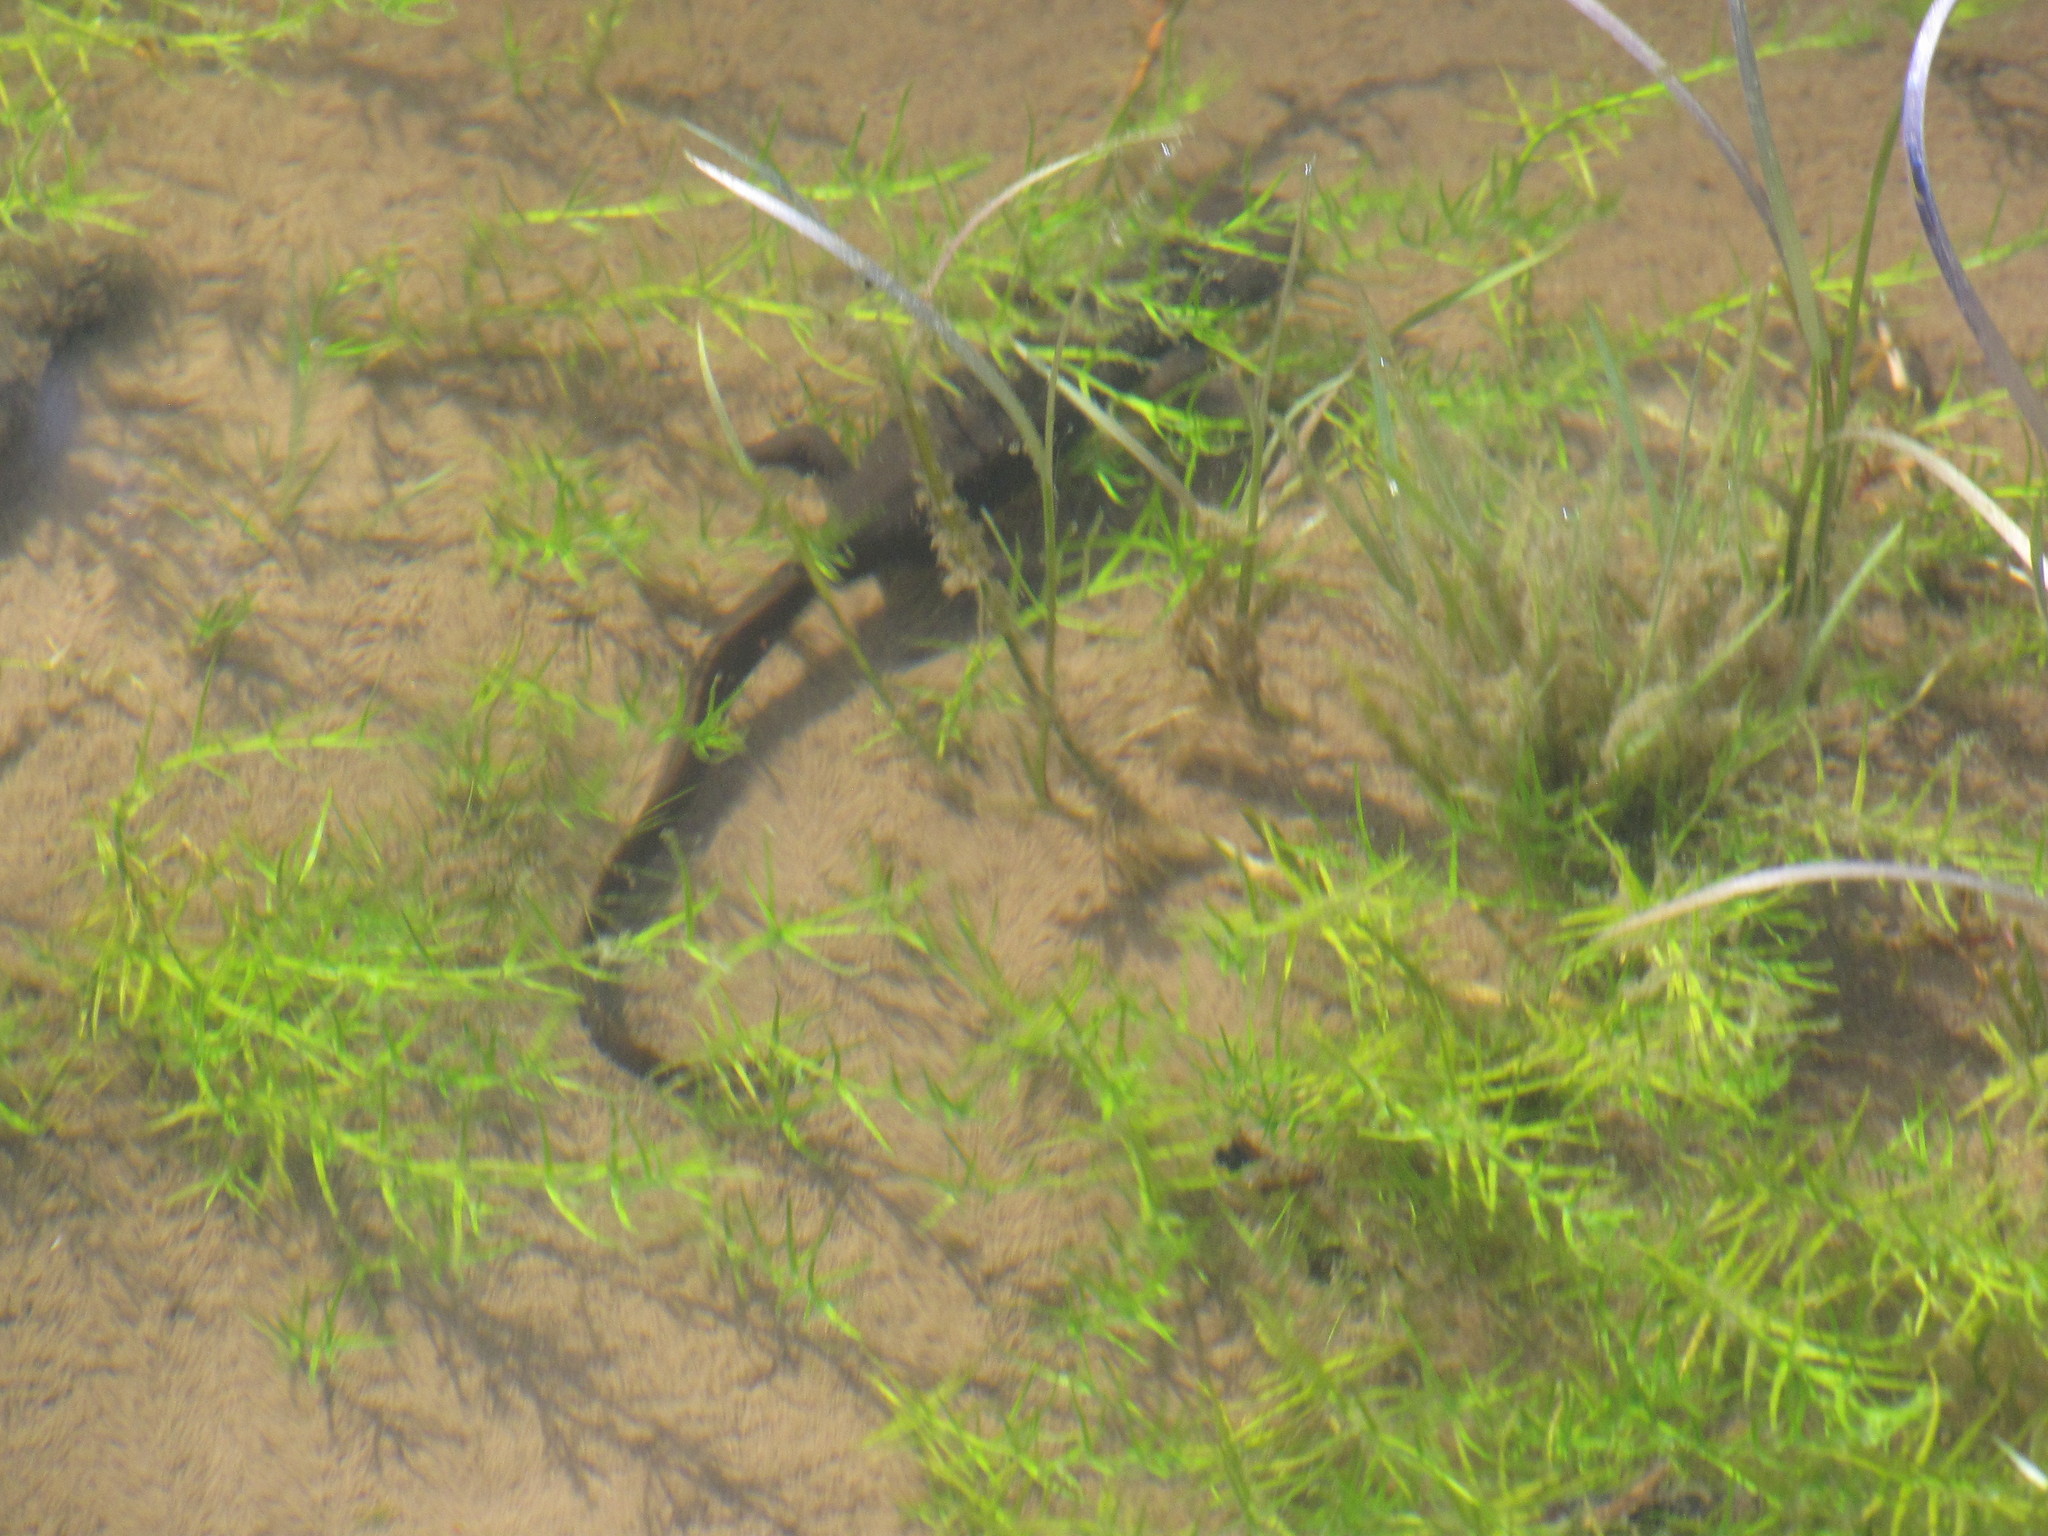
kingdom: Animalia
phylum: Chordata
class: Amphibia
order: Caudata
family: Salamandridae
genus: Taricha
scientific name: Taricha granulosa
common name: Roughskin newt
